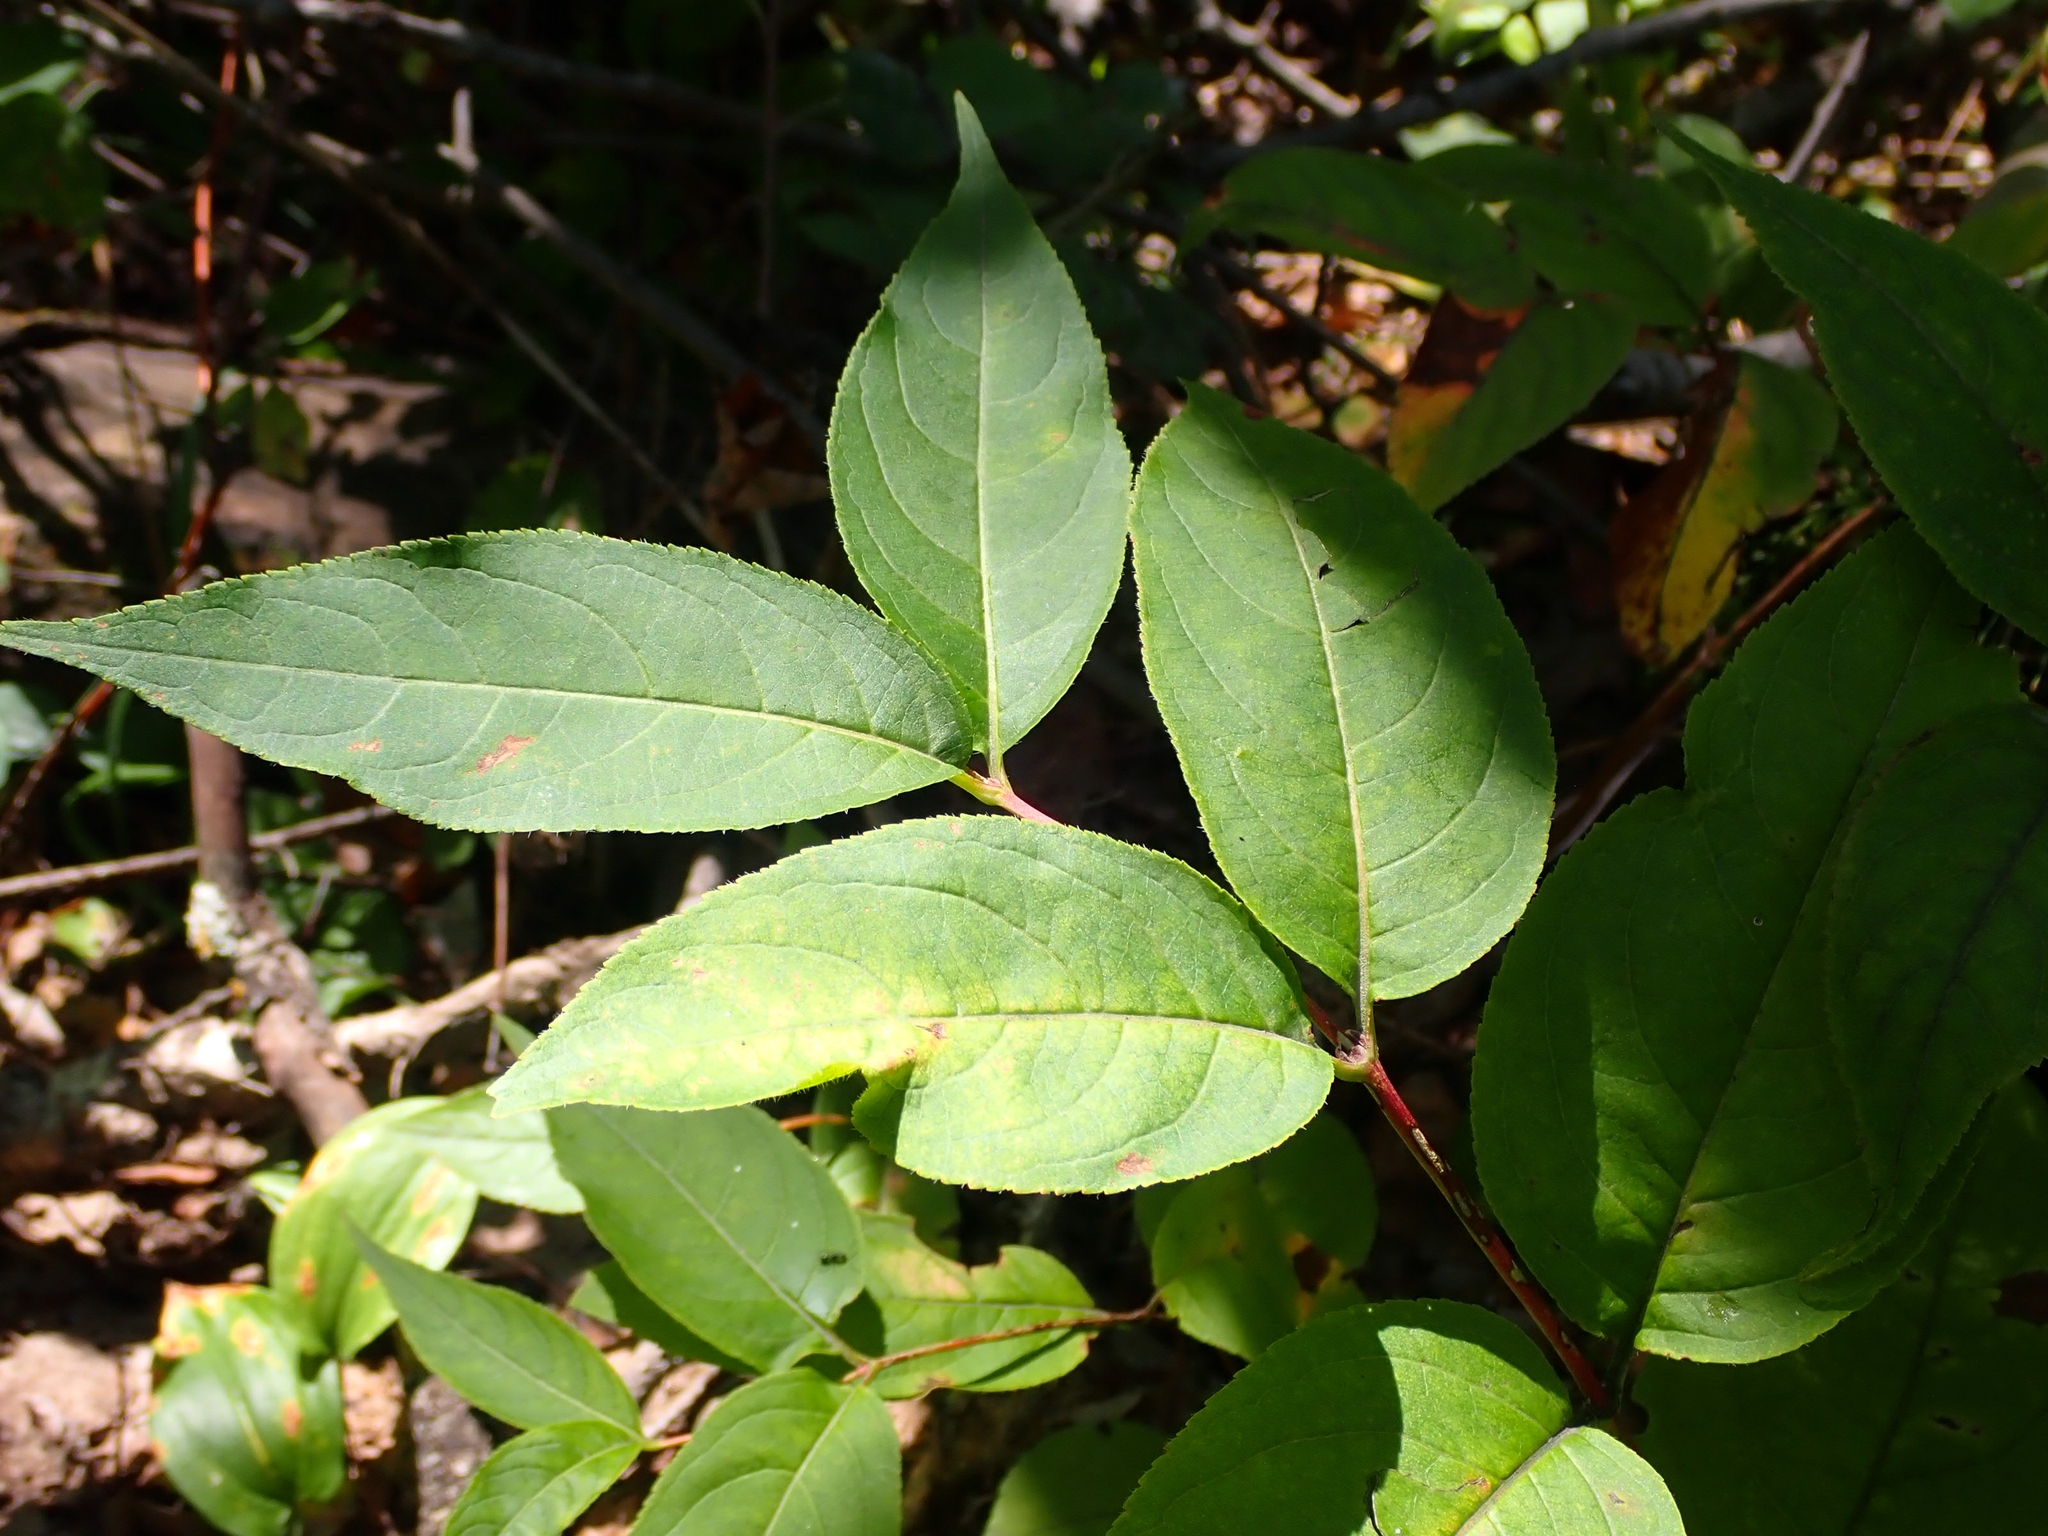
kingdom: Plantae
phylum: Tracheophyta
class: Magnoliopsida
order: Dipsacales
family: Caprifoliaceae
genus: Diervilla
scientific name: Diervilla lonicera
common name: Bush-honeysuckle
